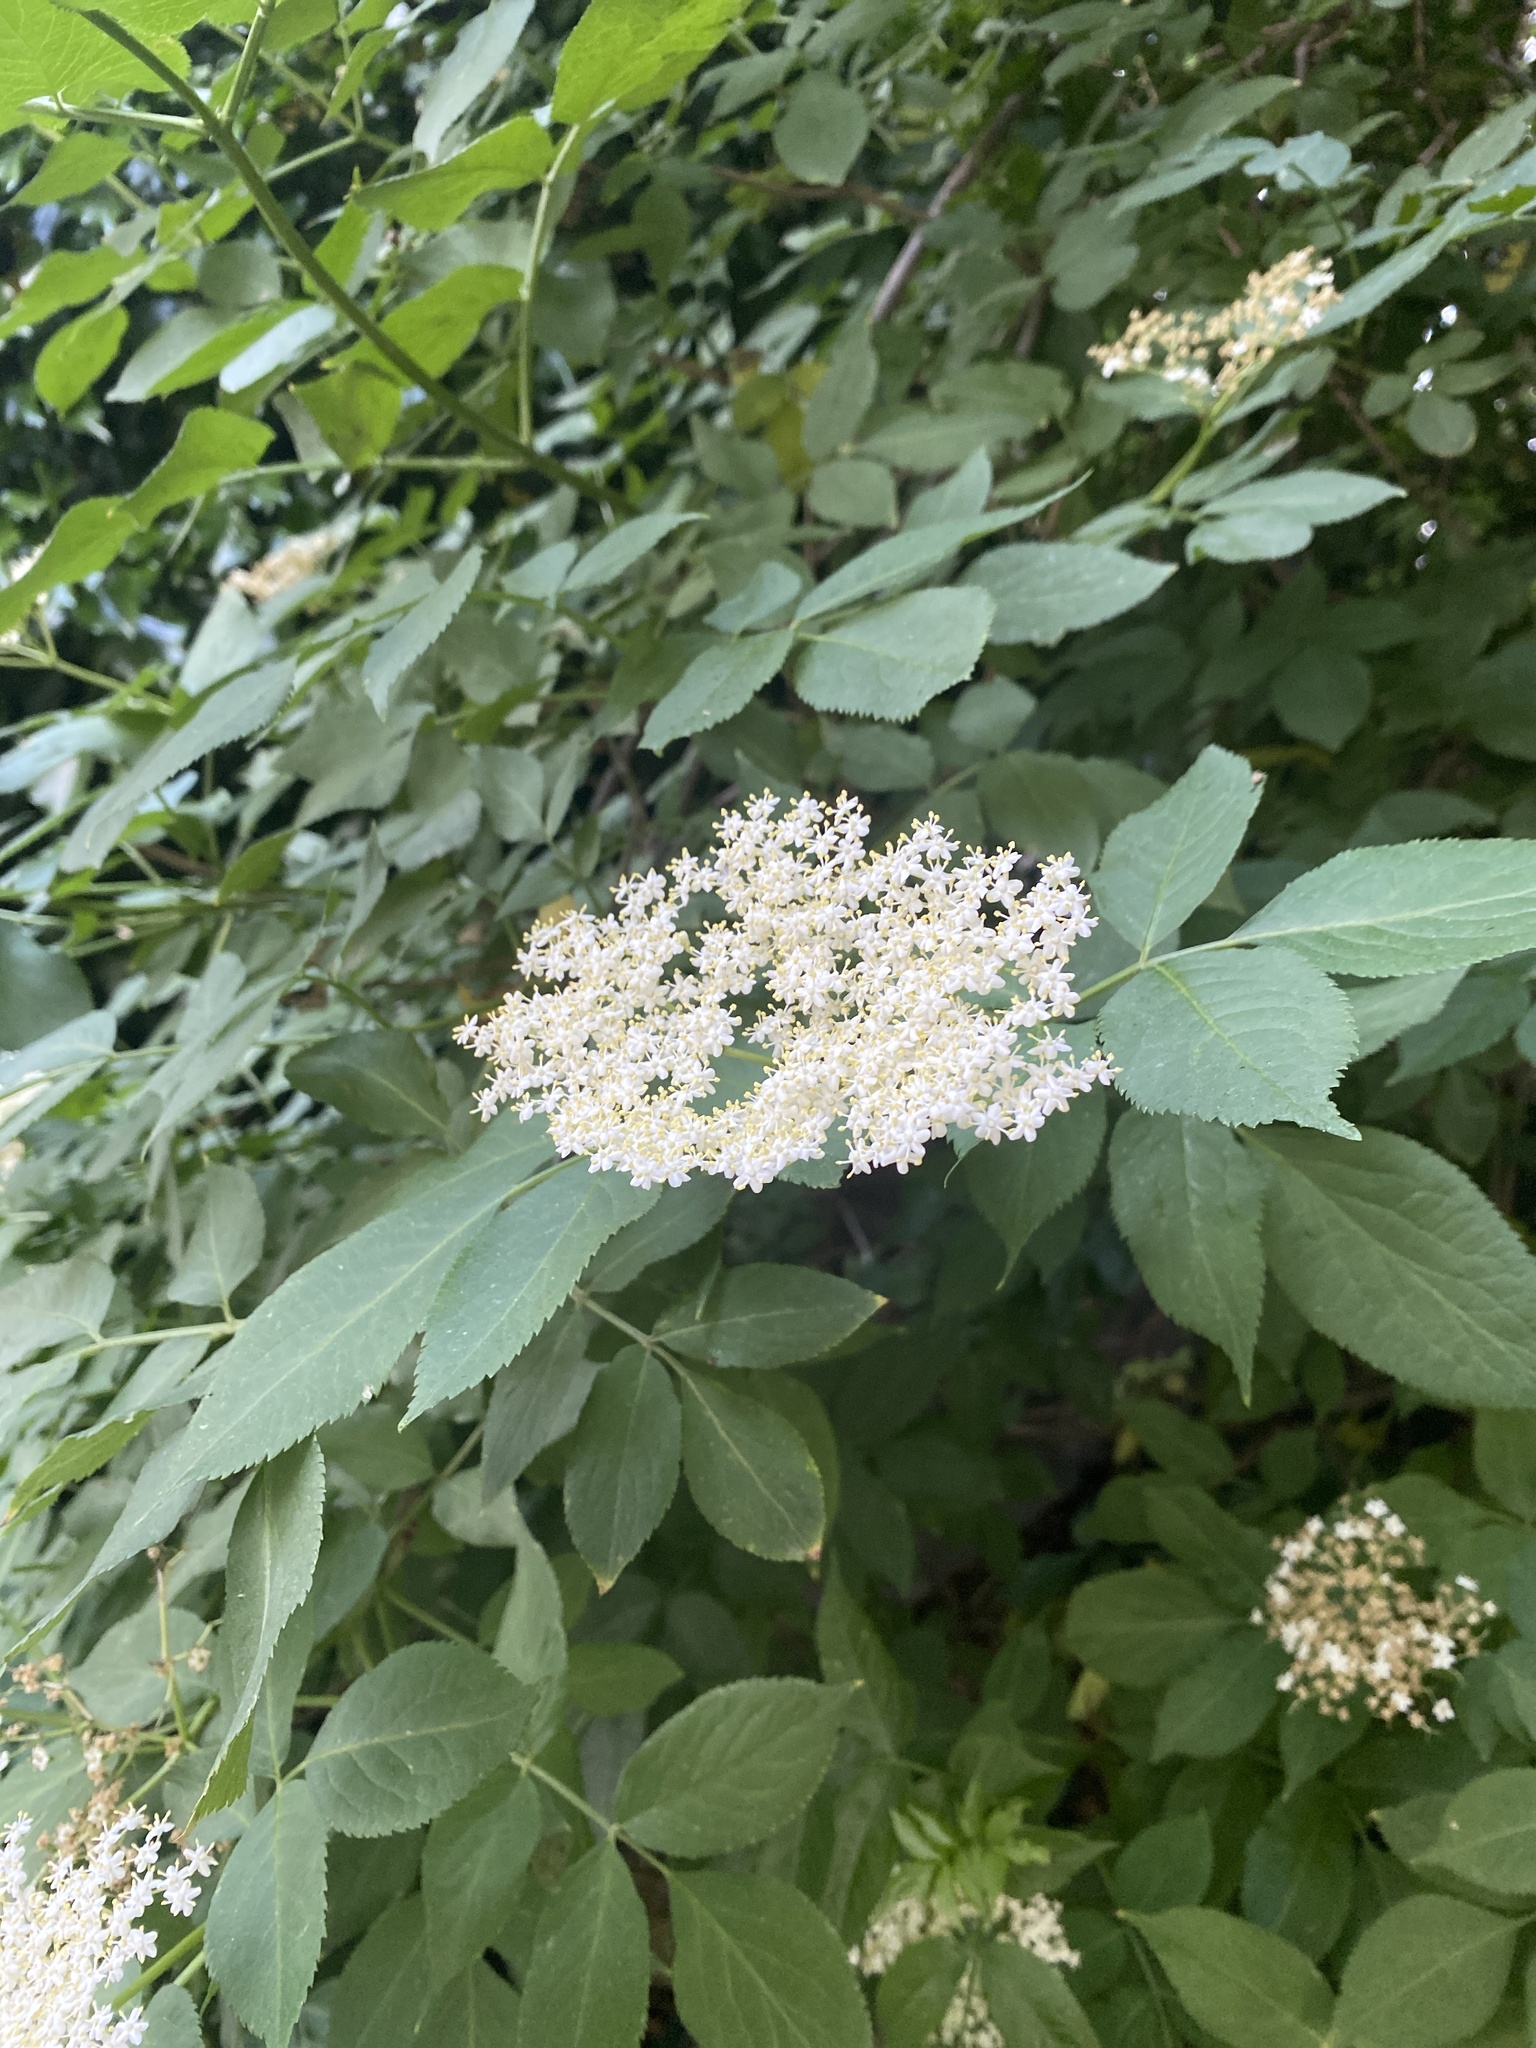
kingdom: Plantae
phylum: Tracheophyta
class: Magnoliopsida
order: Dipsacales
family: Viburnaceae
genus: Sambucus
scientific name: Sambucus nigra
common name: Elder
